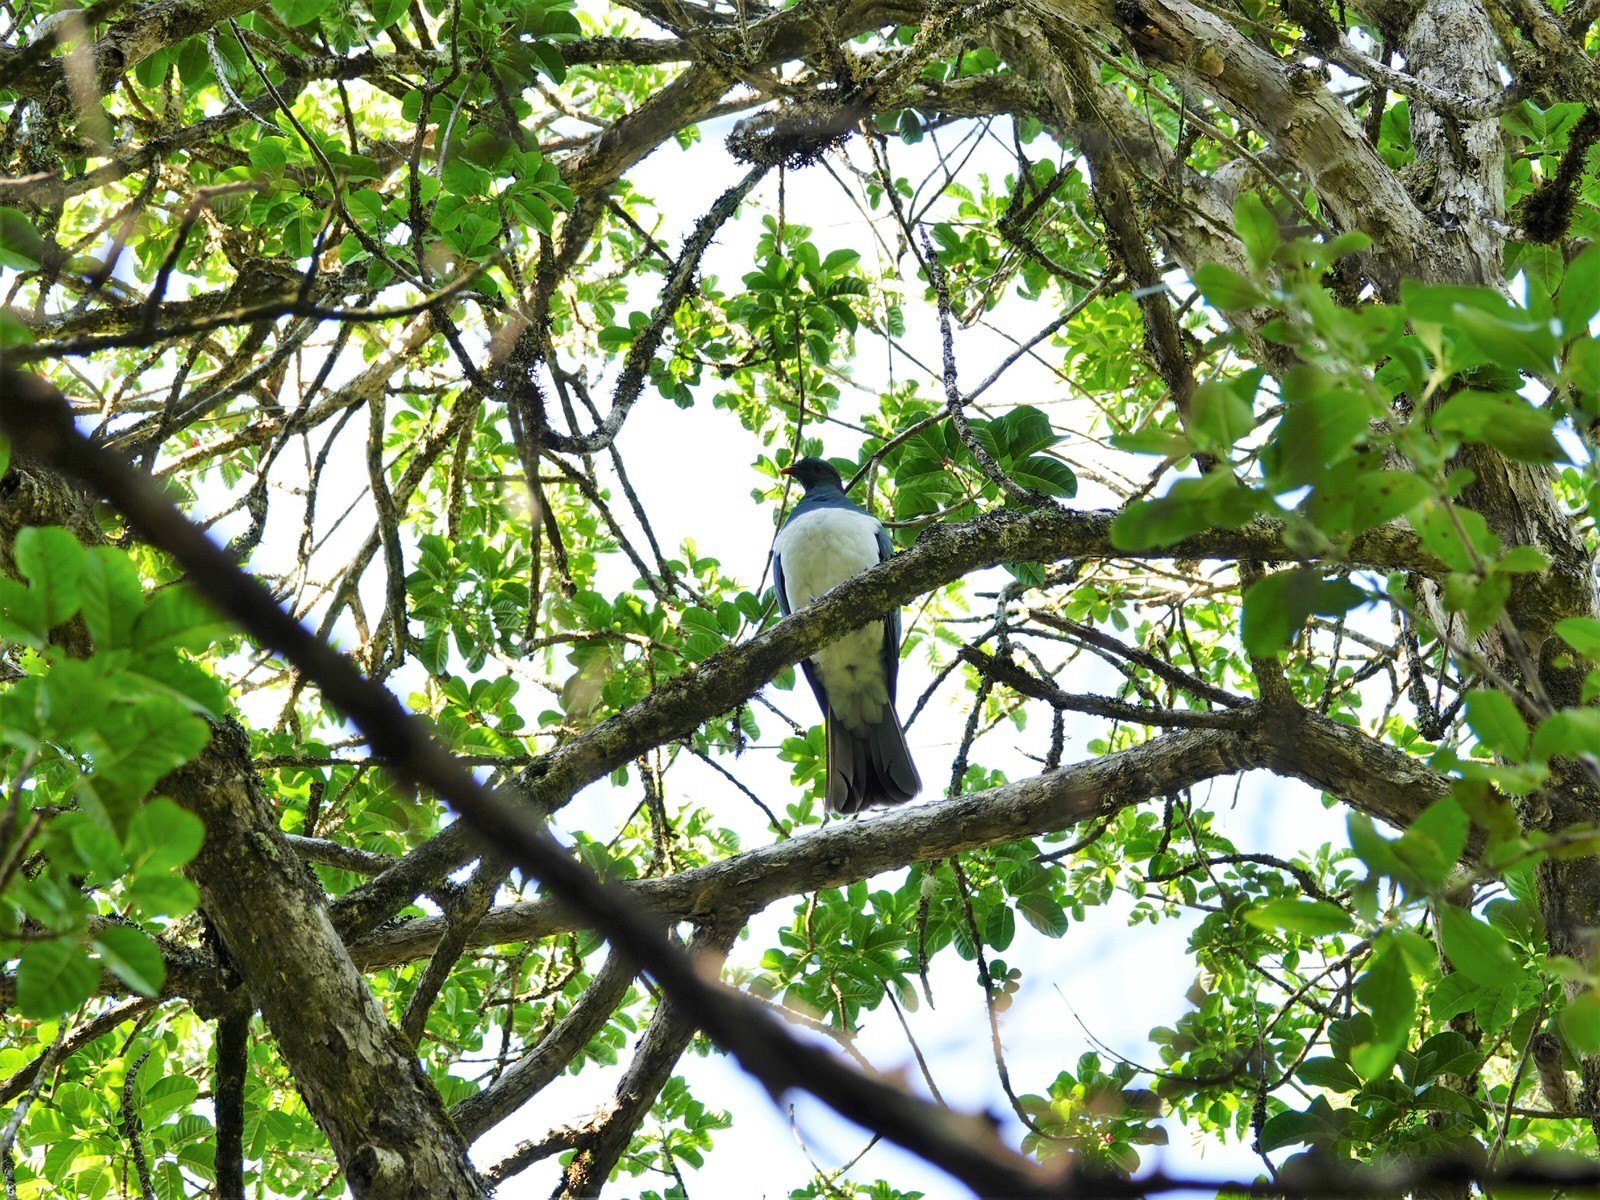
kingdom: Animalia
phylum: Chordata
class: Aves
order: Columbiformes
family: Columbidae
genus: Hemiphaga
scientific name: Hemiphaga novaeseelandiae
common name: New zealand pigeon
